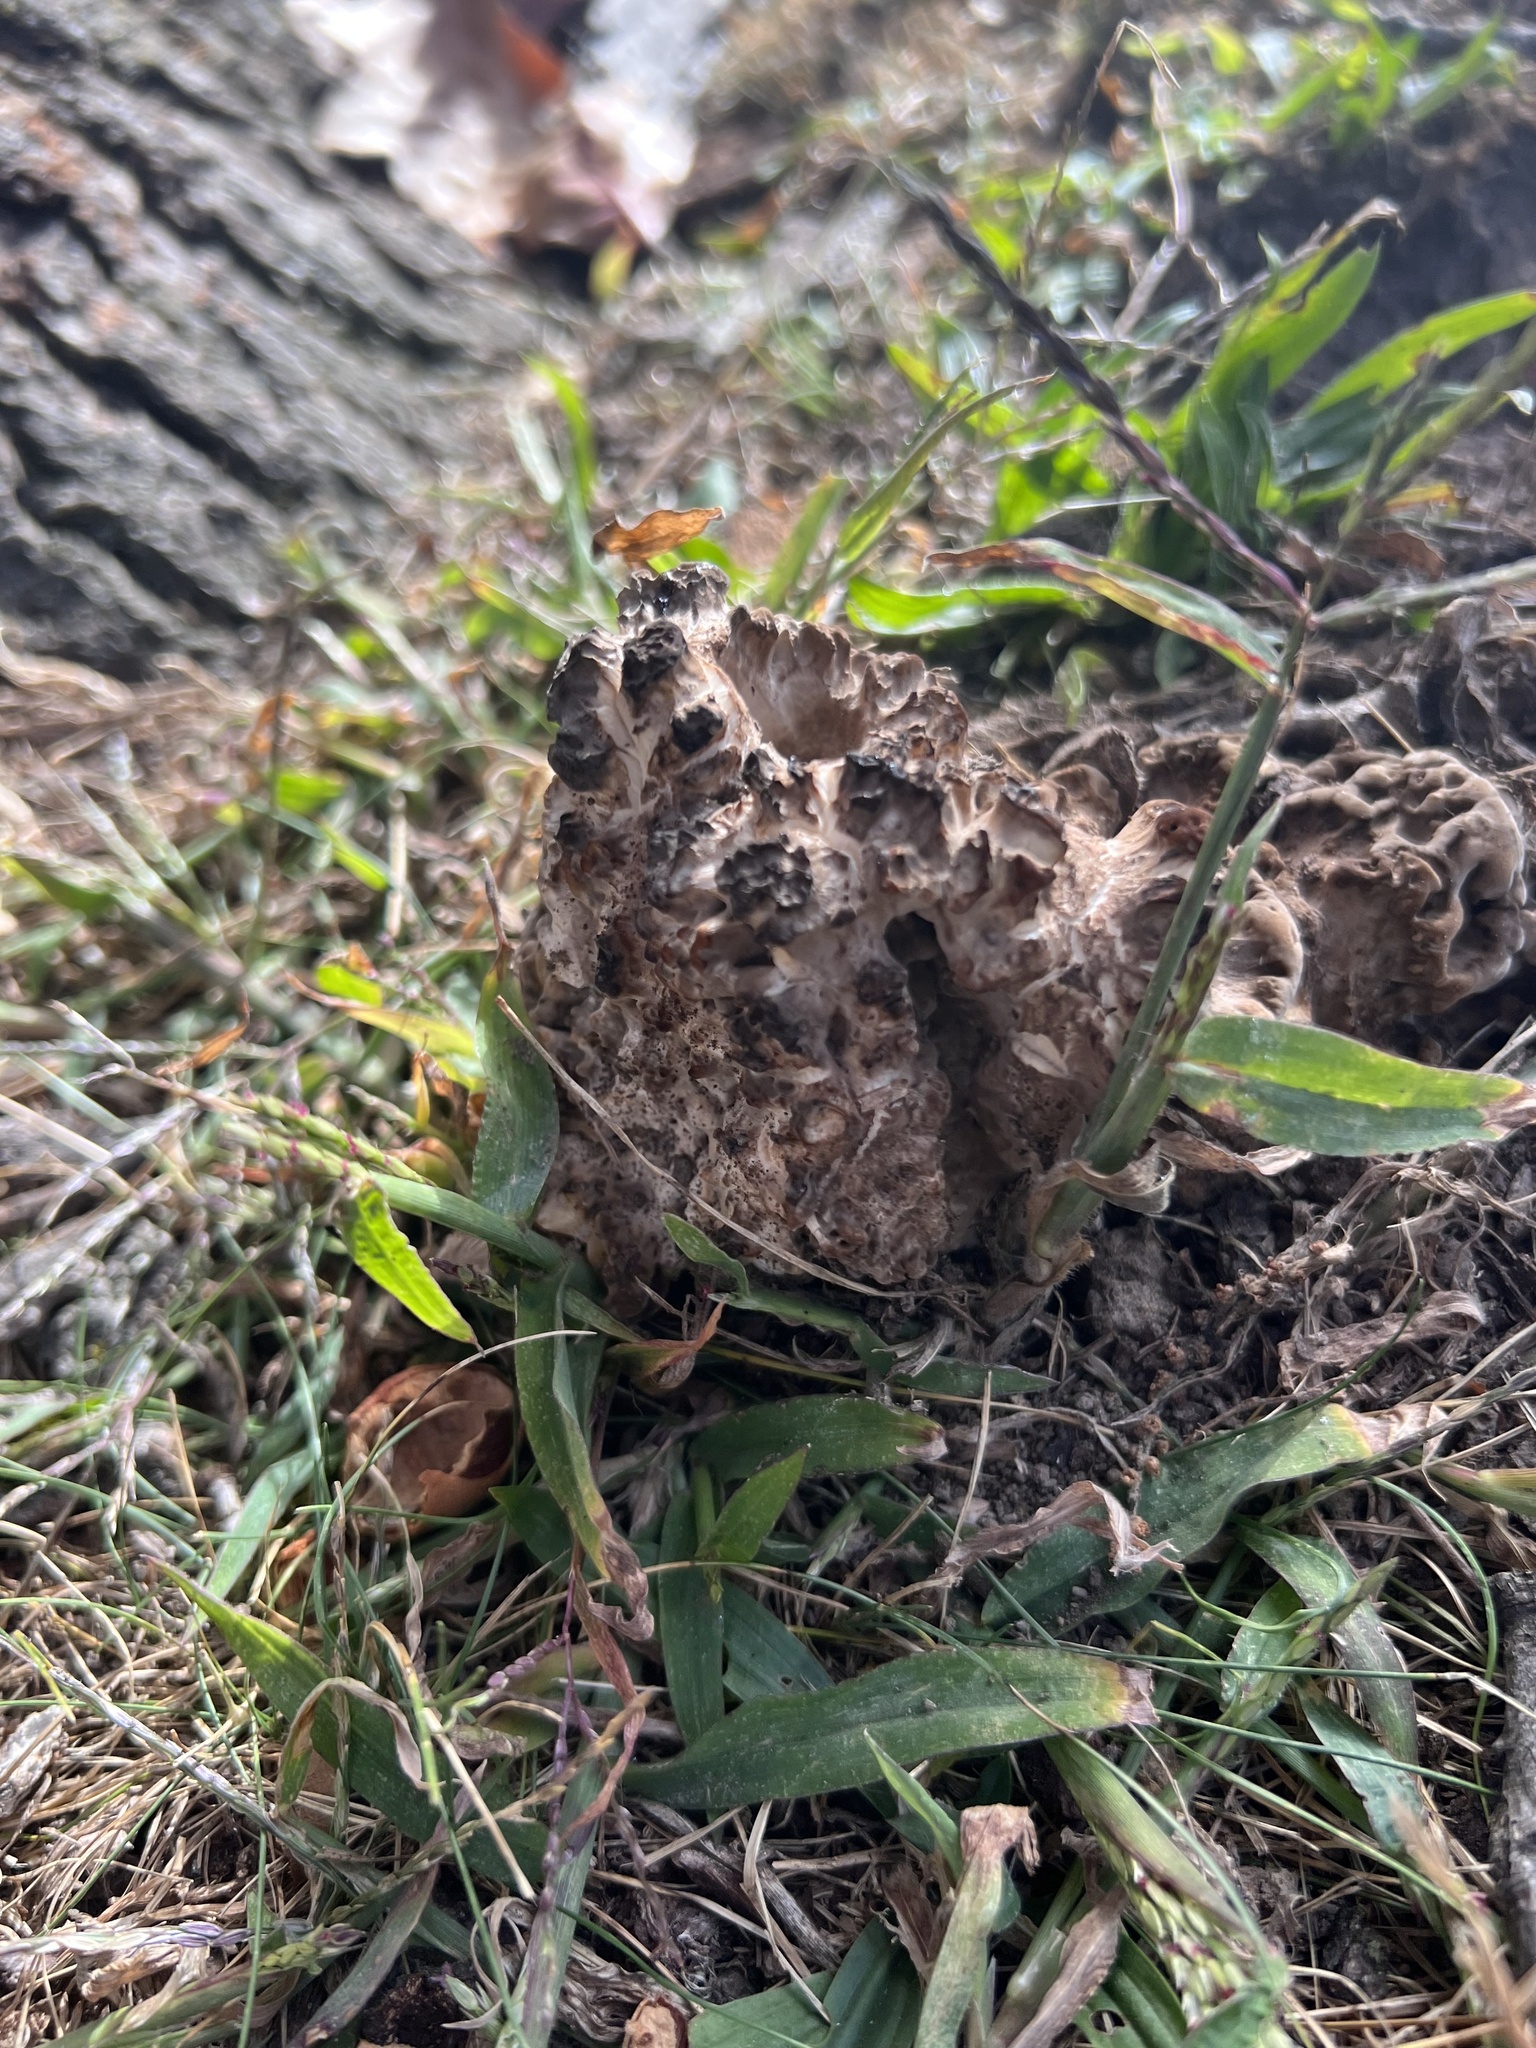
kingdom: Fungi
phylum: Basidiomycota
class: Agaricomycetes
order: Polyporales
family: Grifolaceae
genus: Grifola
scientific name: Grifola frondosa
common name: Hen of the woods
